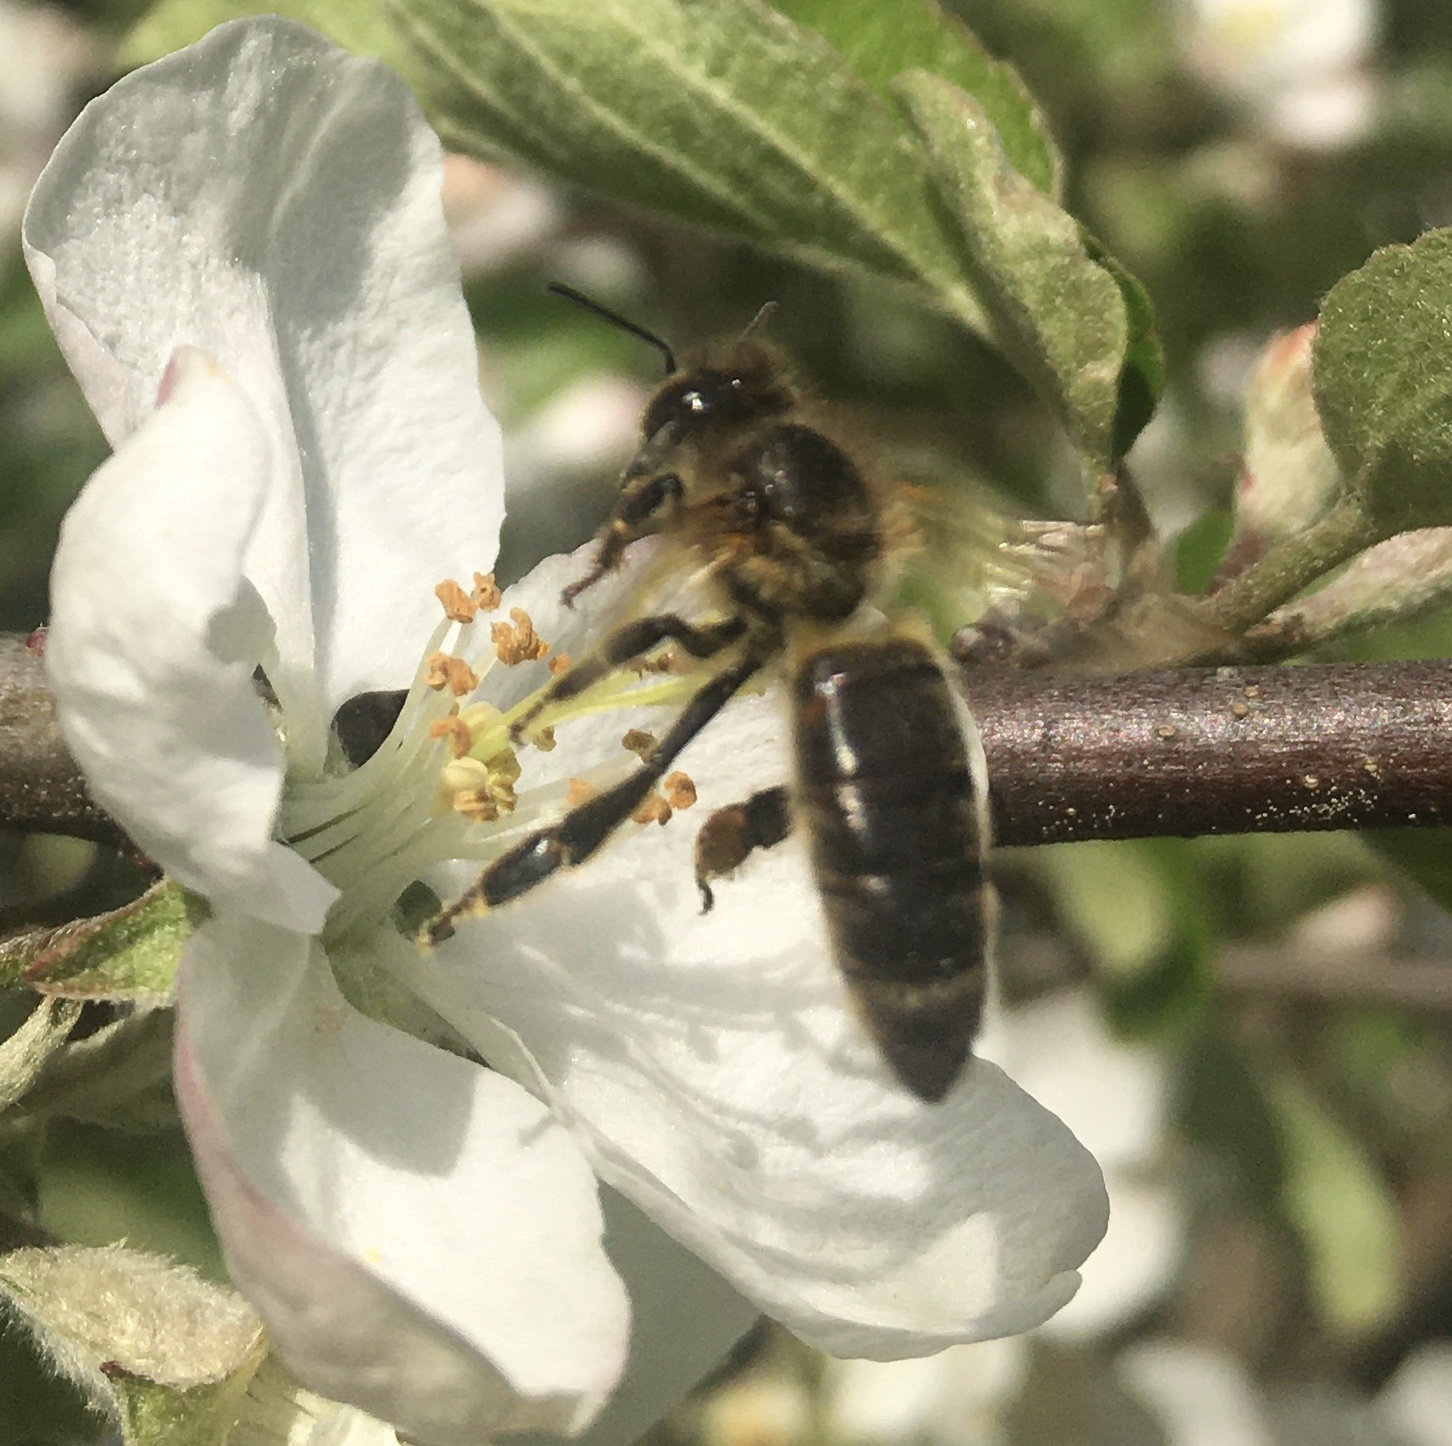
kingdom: Animalia
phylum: Arthropoda
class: Insecta
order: Hymenoptera
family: Apidae
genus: Apis
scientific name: Apis mellifera
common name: Honey bee
